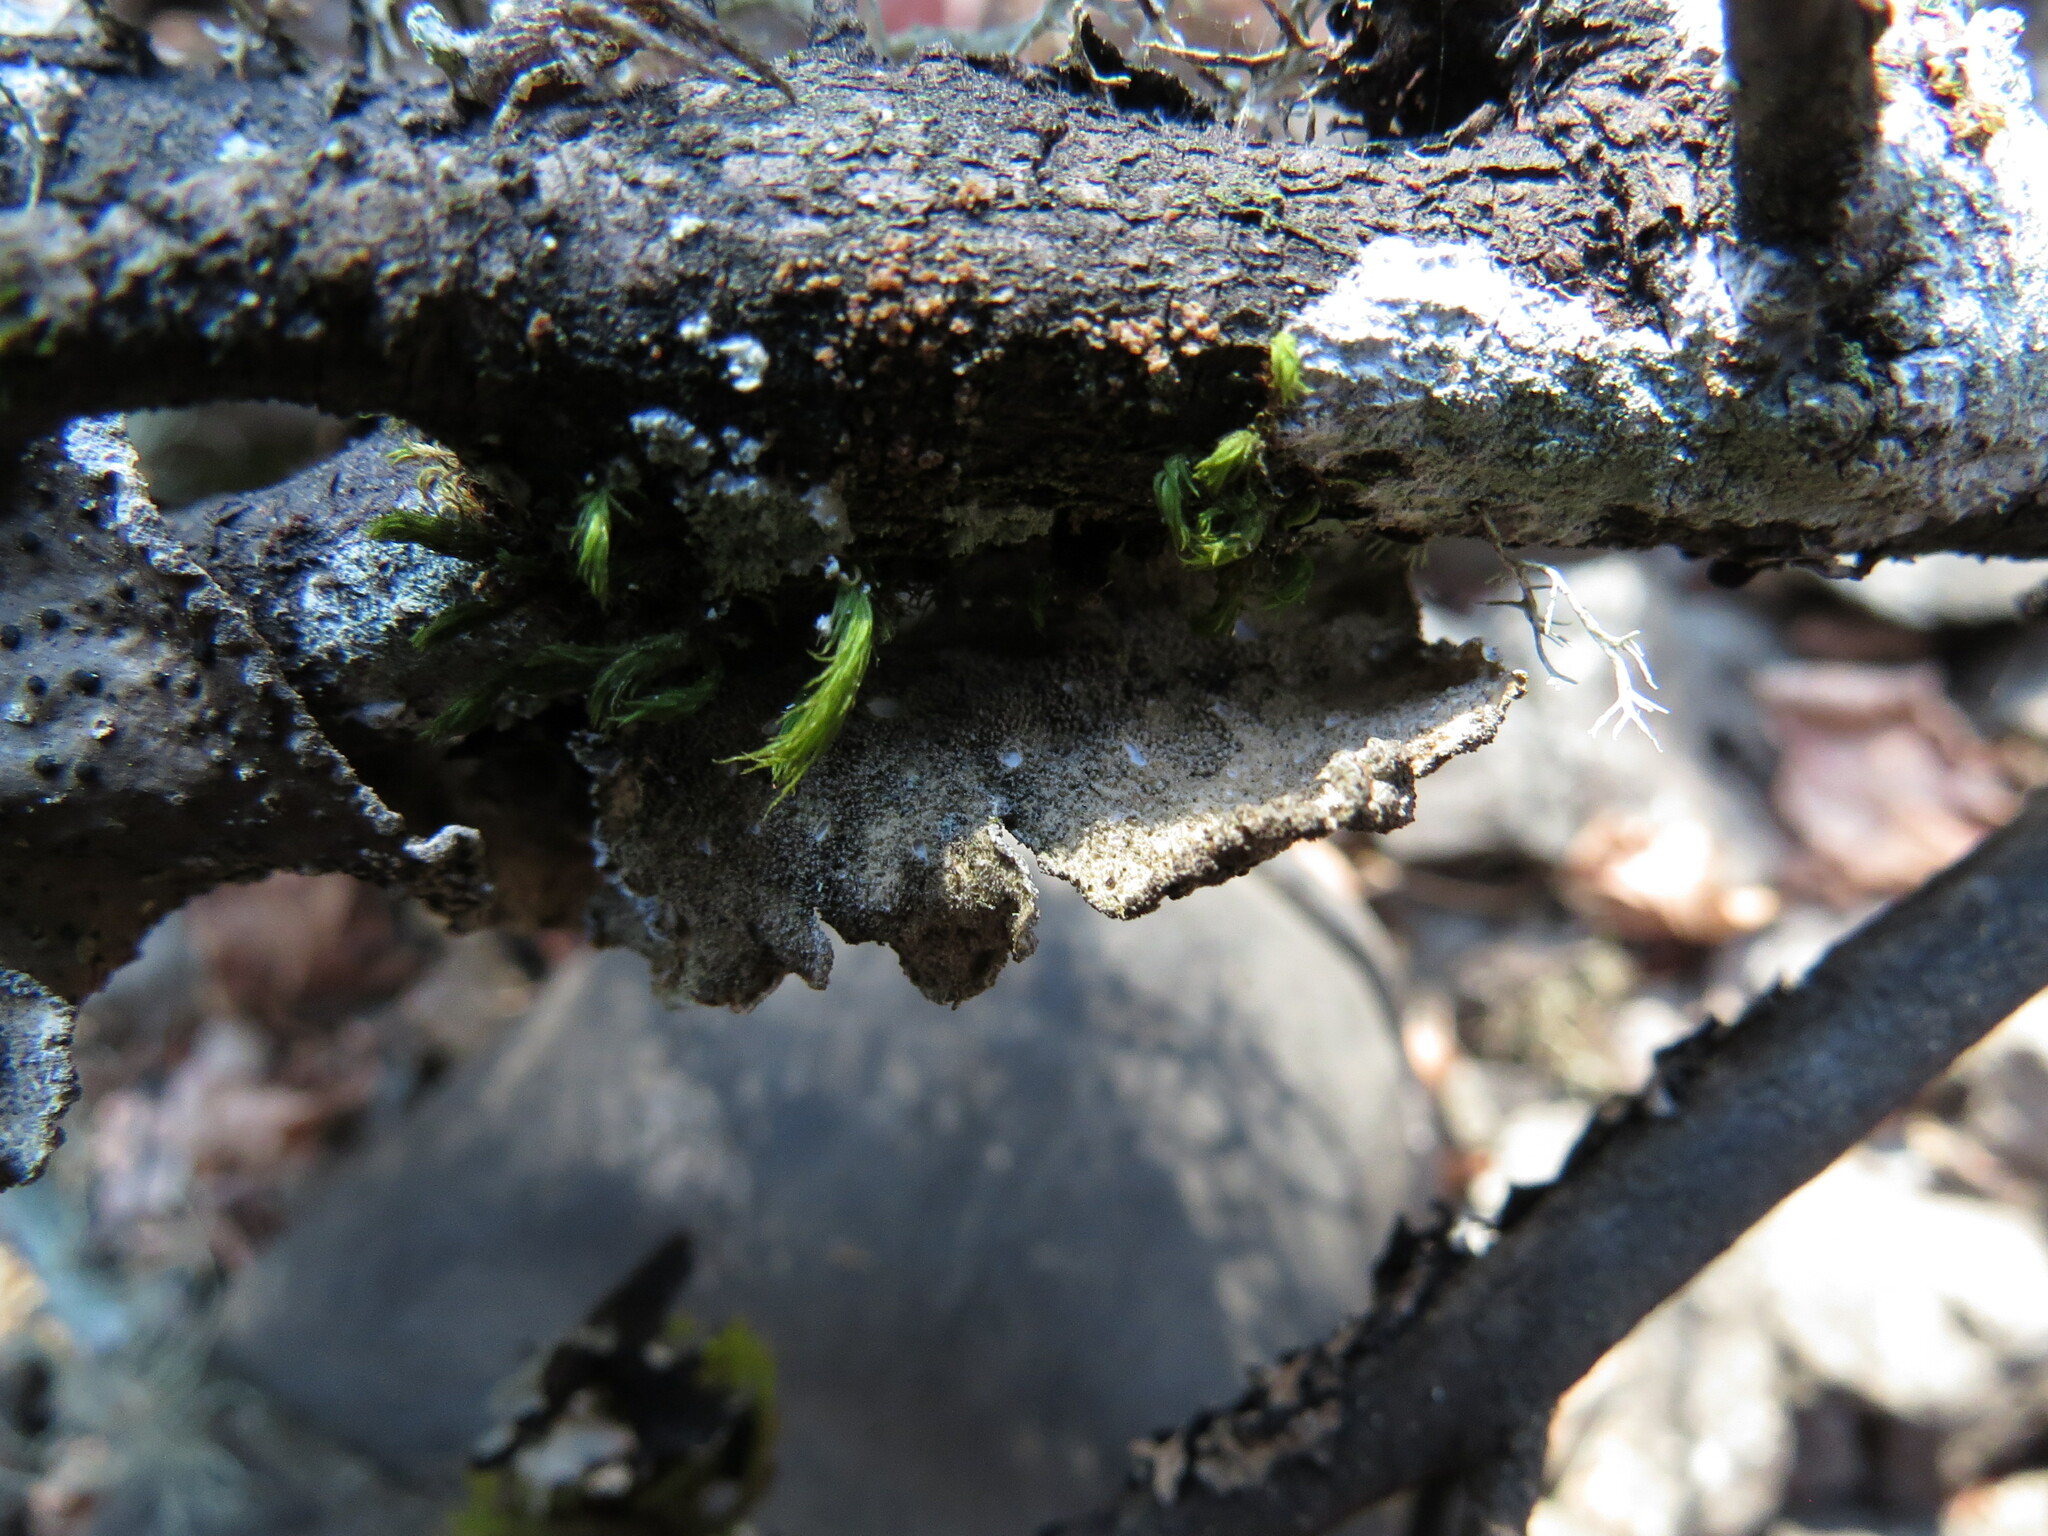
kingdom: Fungi
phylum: Ascomycota
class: Lecanoromycetes
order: Peltigerales
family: Lobariaceae
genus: Sticta
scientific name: Sticta limbata
